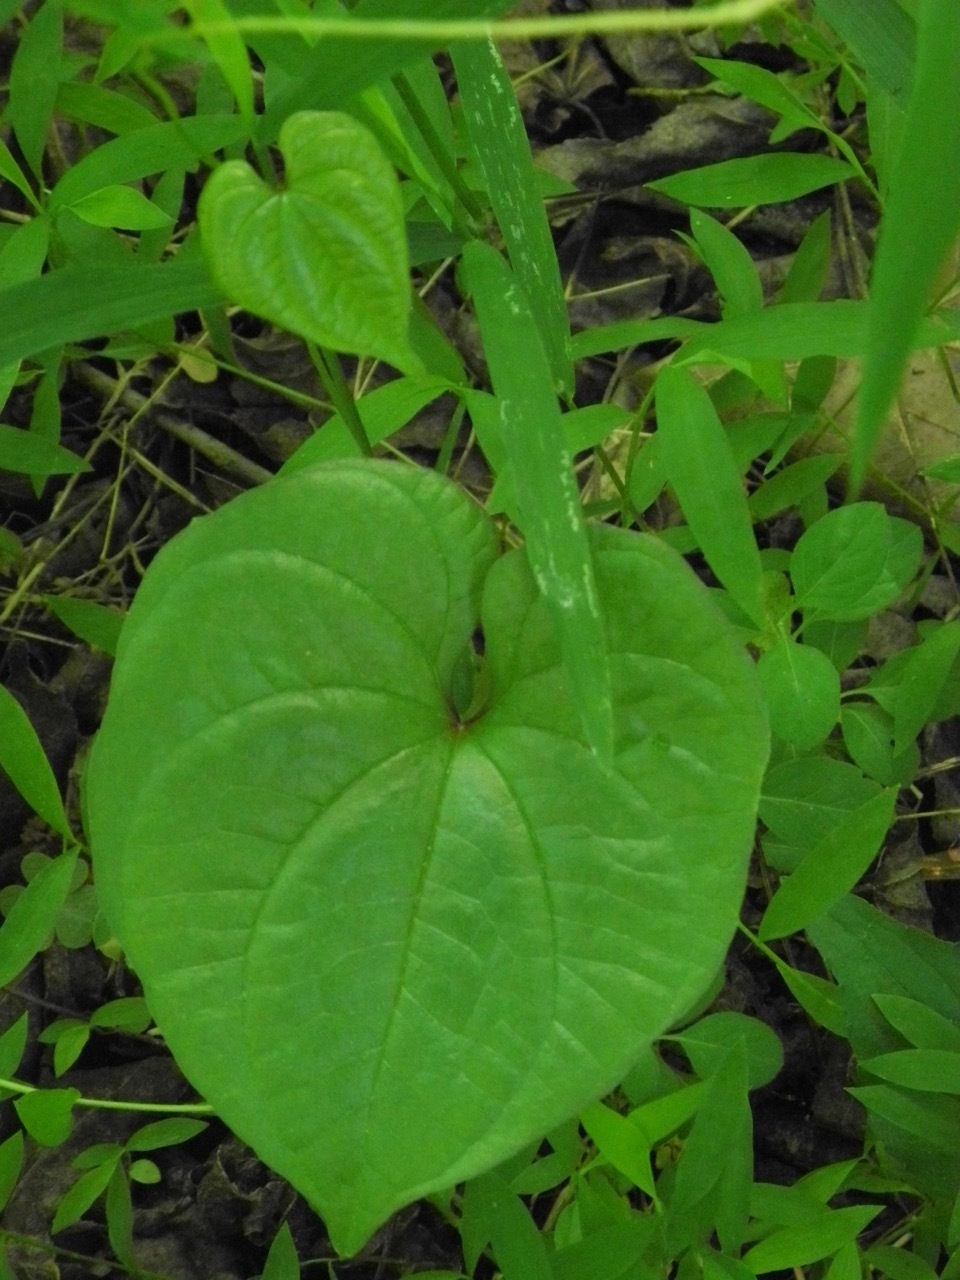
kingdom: Plantae
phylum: Tracheophyta
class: Magnoliopsida
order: Solanales
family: Convolvulaceae
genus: Ipomoea
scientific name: Ipomoea purpurea
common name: Common morning-glory
